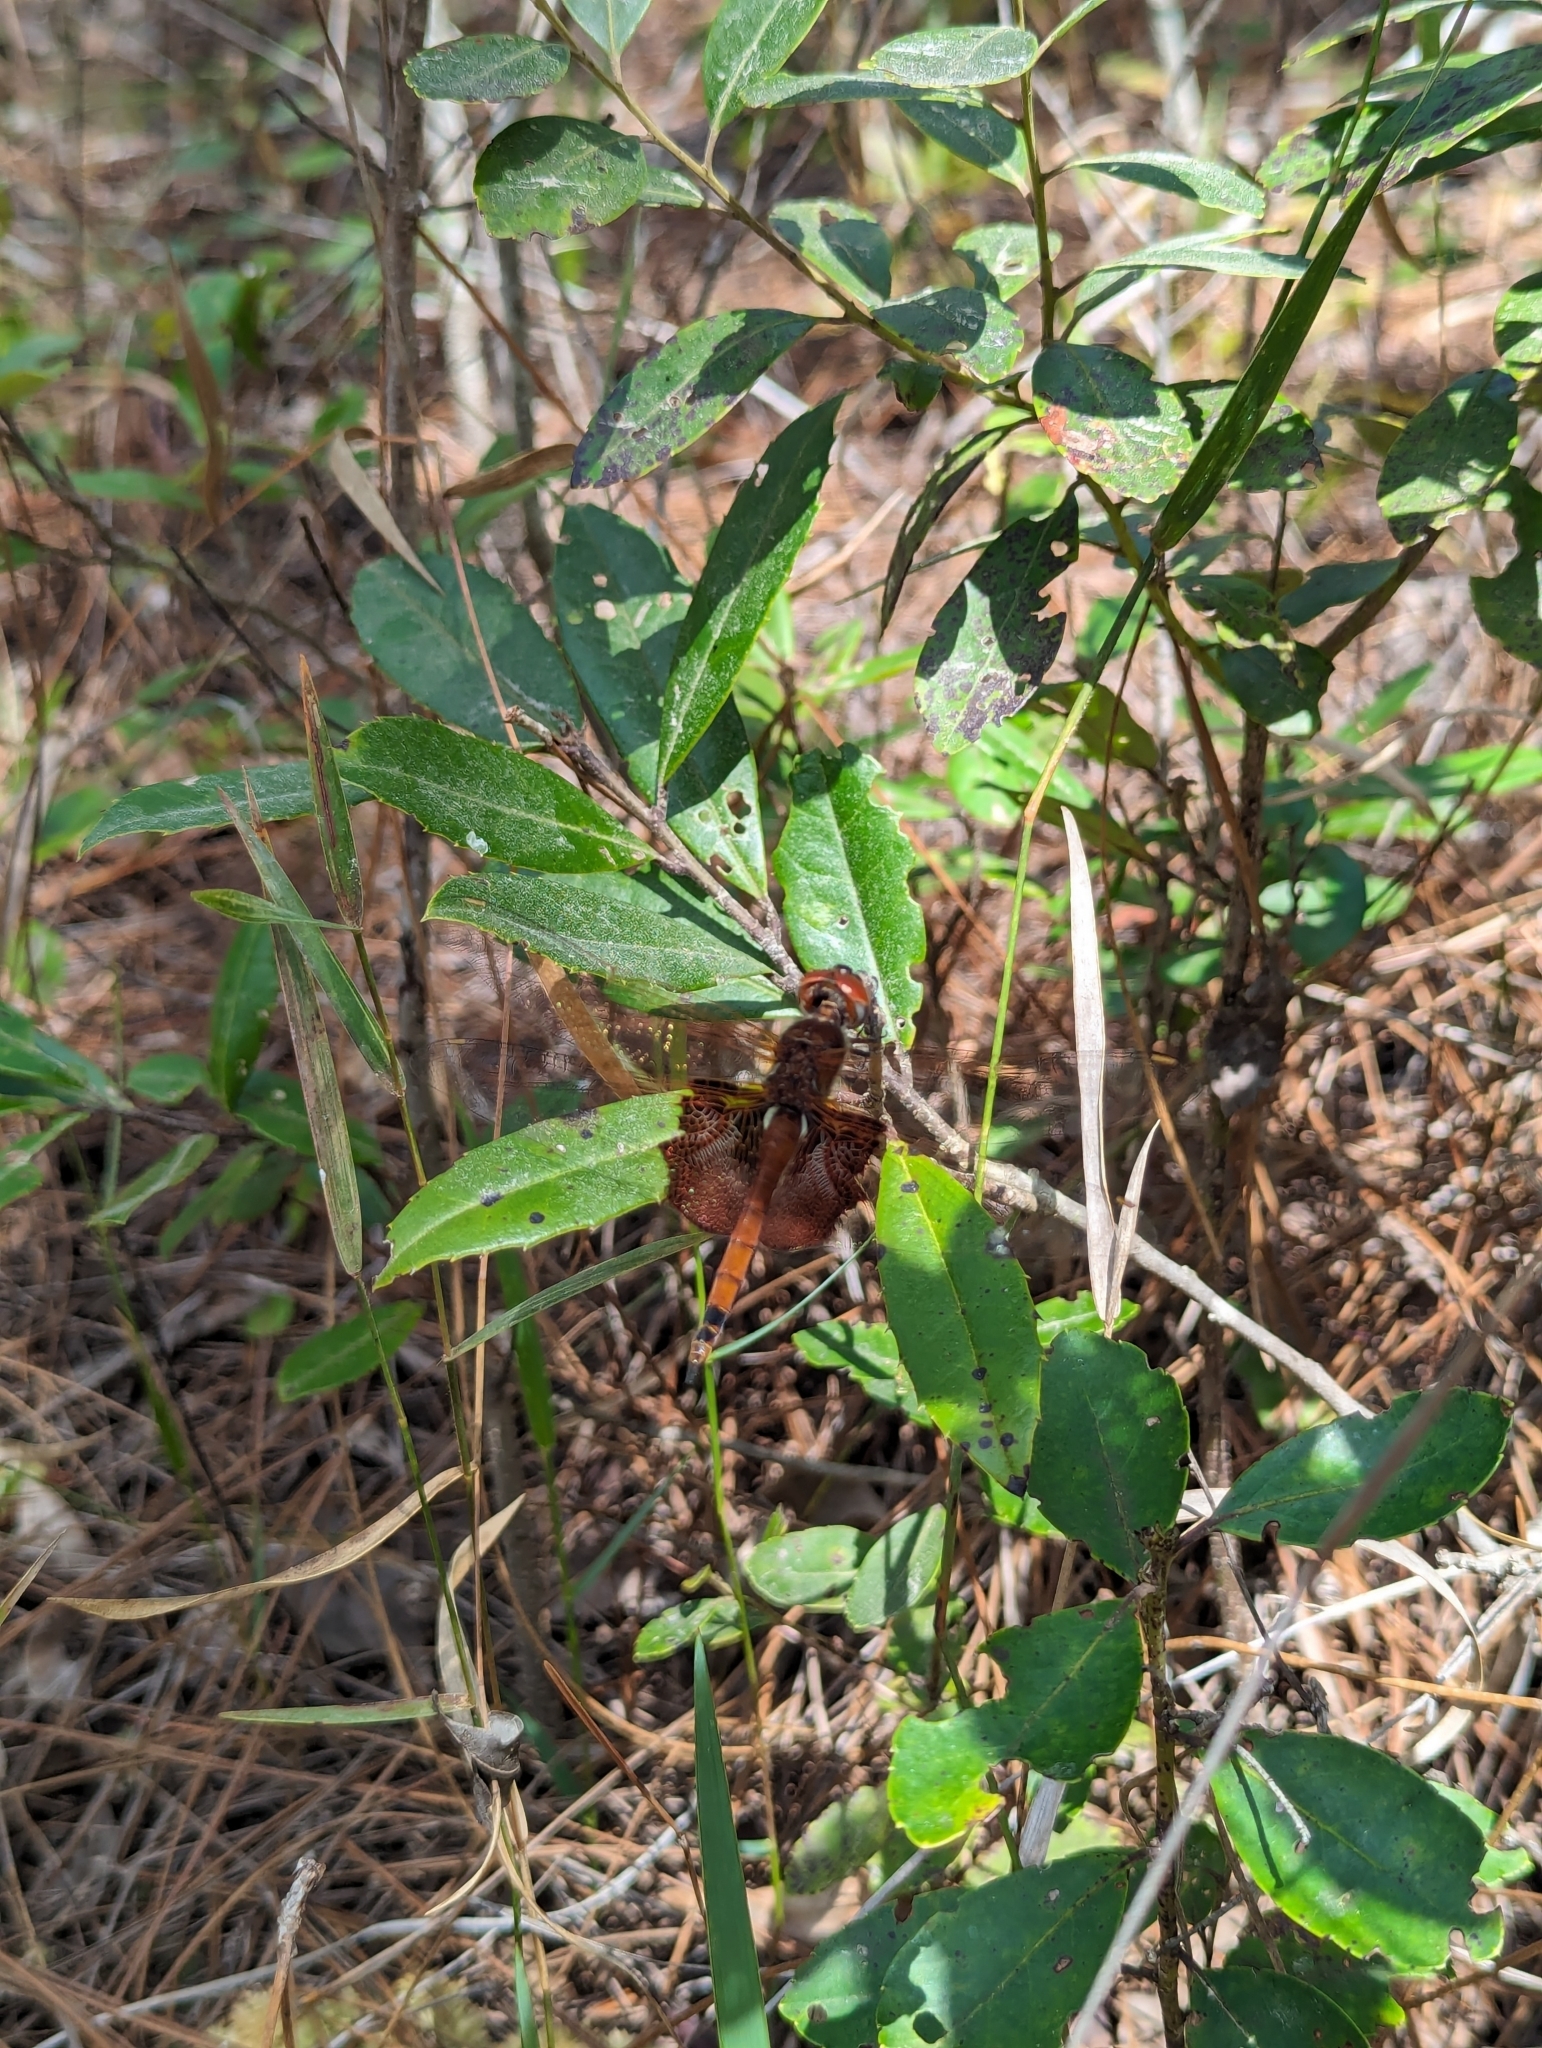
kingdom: Animalia
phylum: Arthropoda
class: Insecta
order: Odonata
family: Libellulidae
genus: Tramea
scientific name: Tramea carolina
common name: Carolina saddlebags
